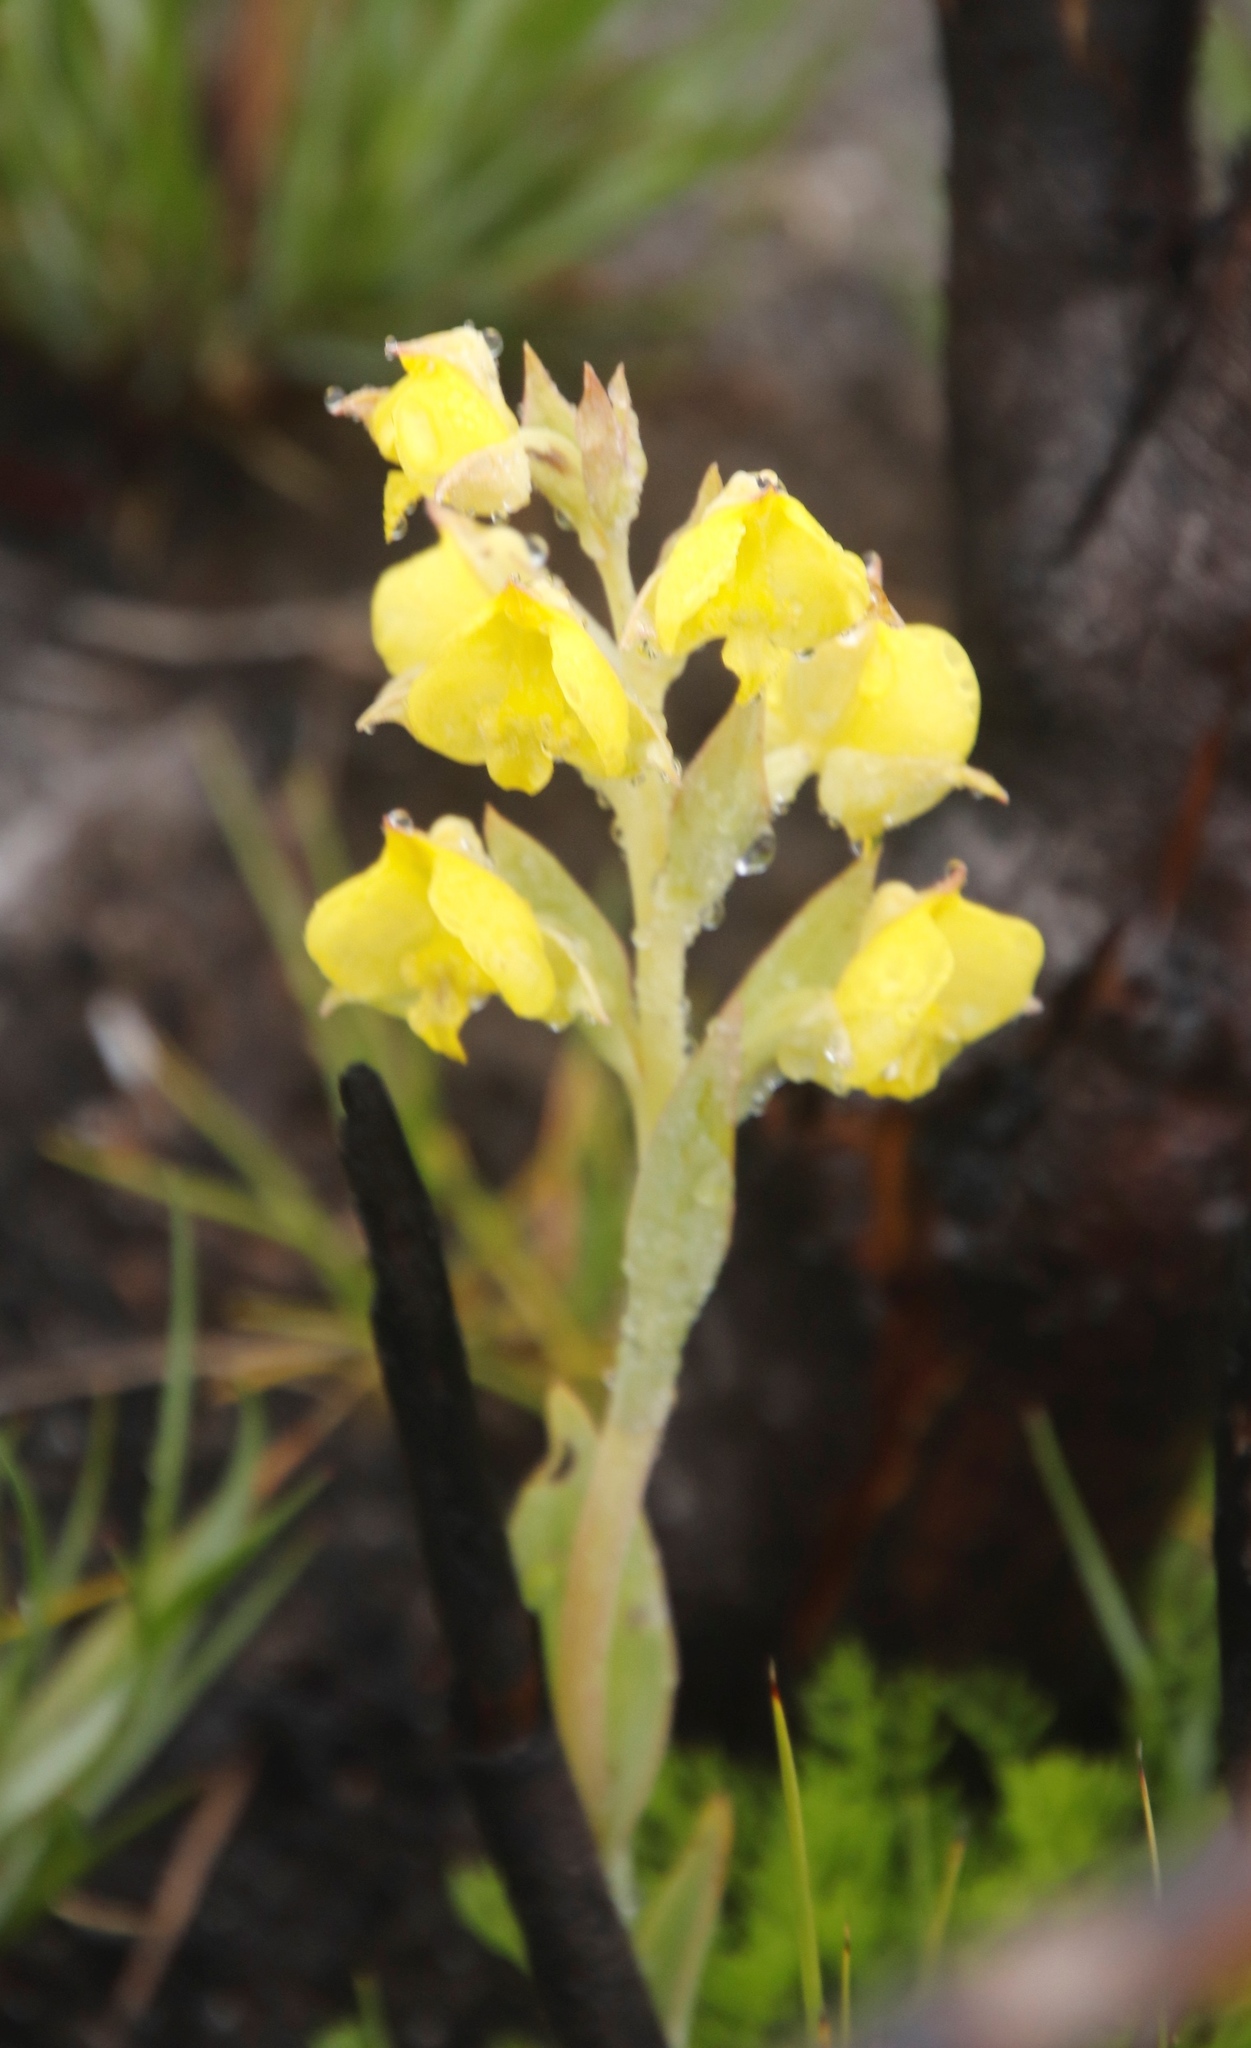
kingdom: Plantae
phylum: Tracheophyta
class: Liliopsida
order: Asparagales
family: Orchidaceae
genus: Pterygodium
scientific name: Pterygodium acutifolium
